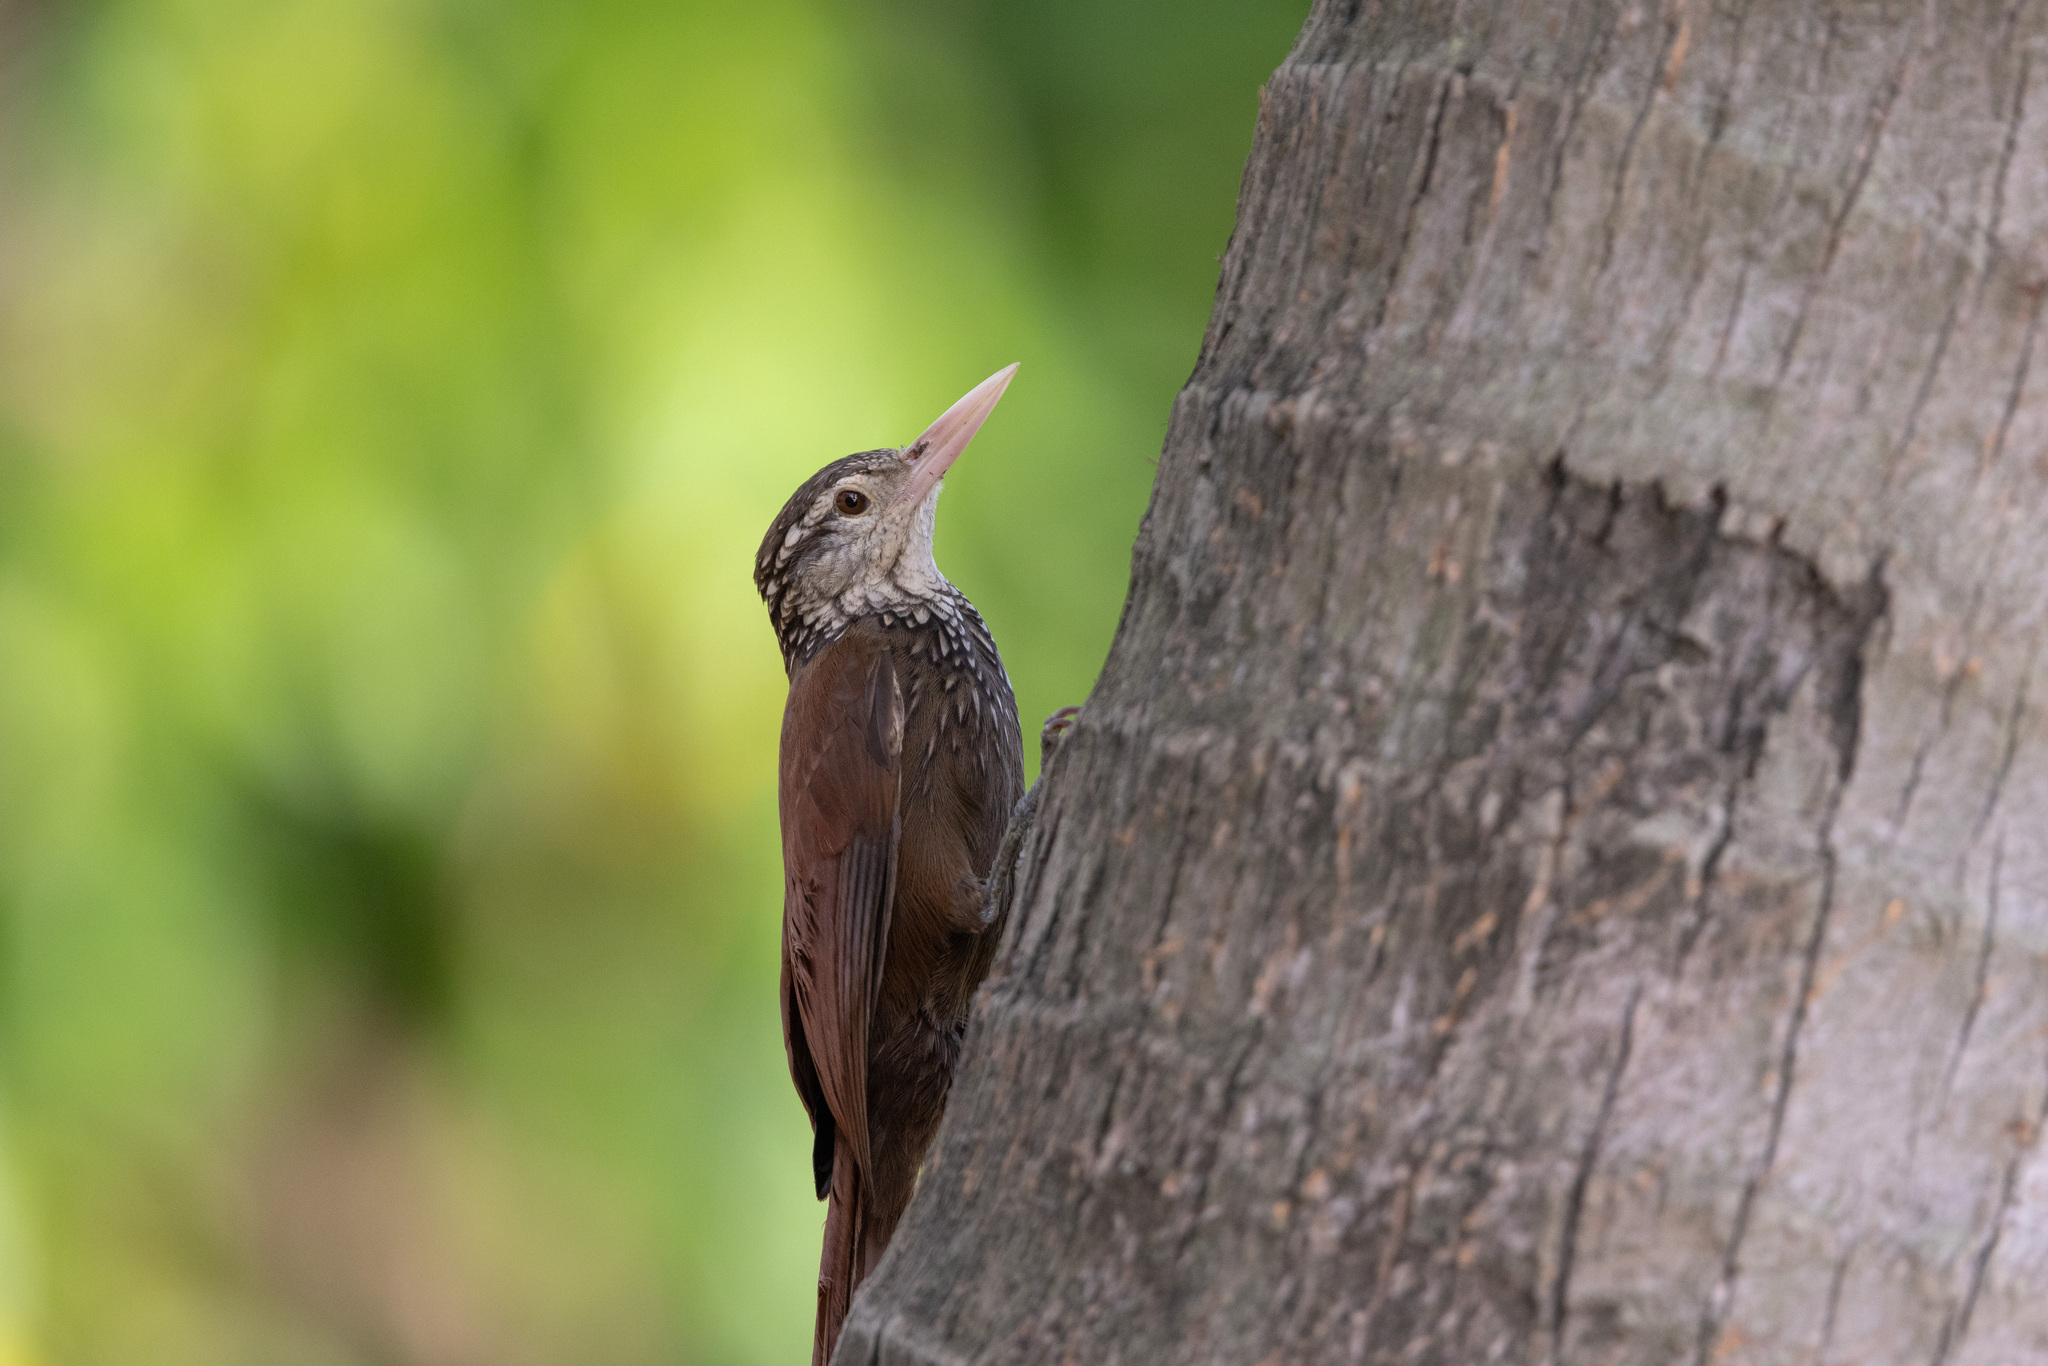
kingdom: Animalia
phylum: Chordata
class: Aves
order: Passeriformes
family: Furnariidae
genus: Xiphorhynchus
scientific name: Xiphorhynchus picus
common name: Straight-billed woodcreeper
